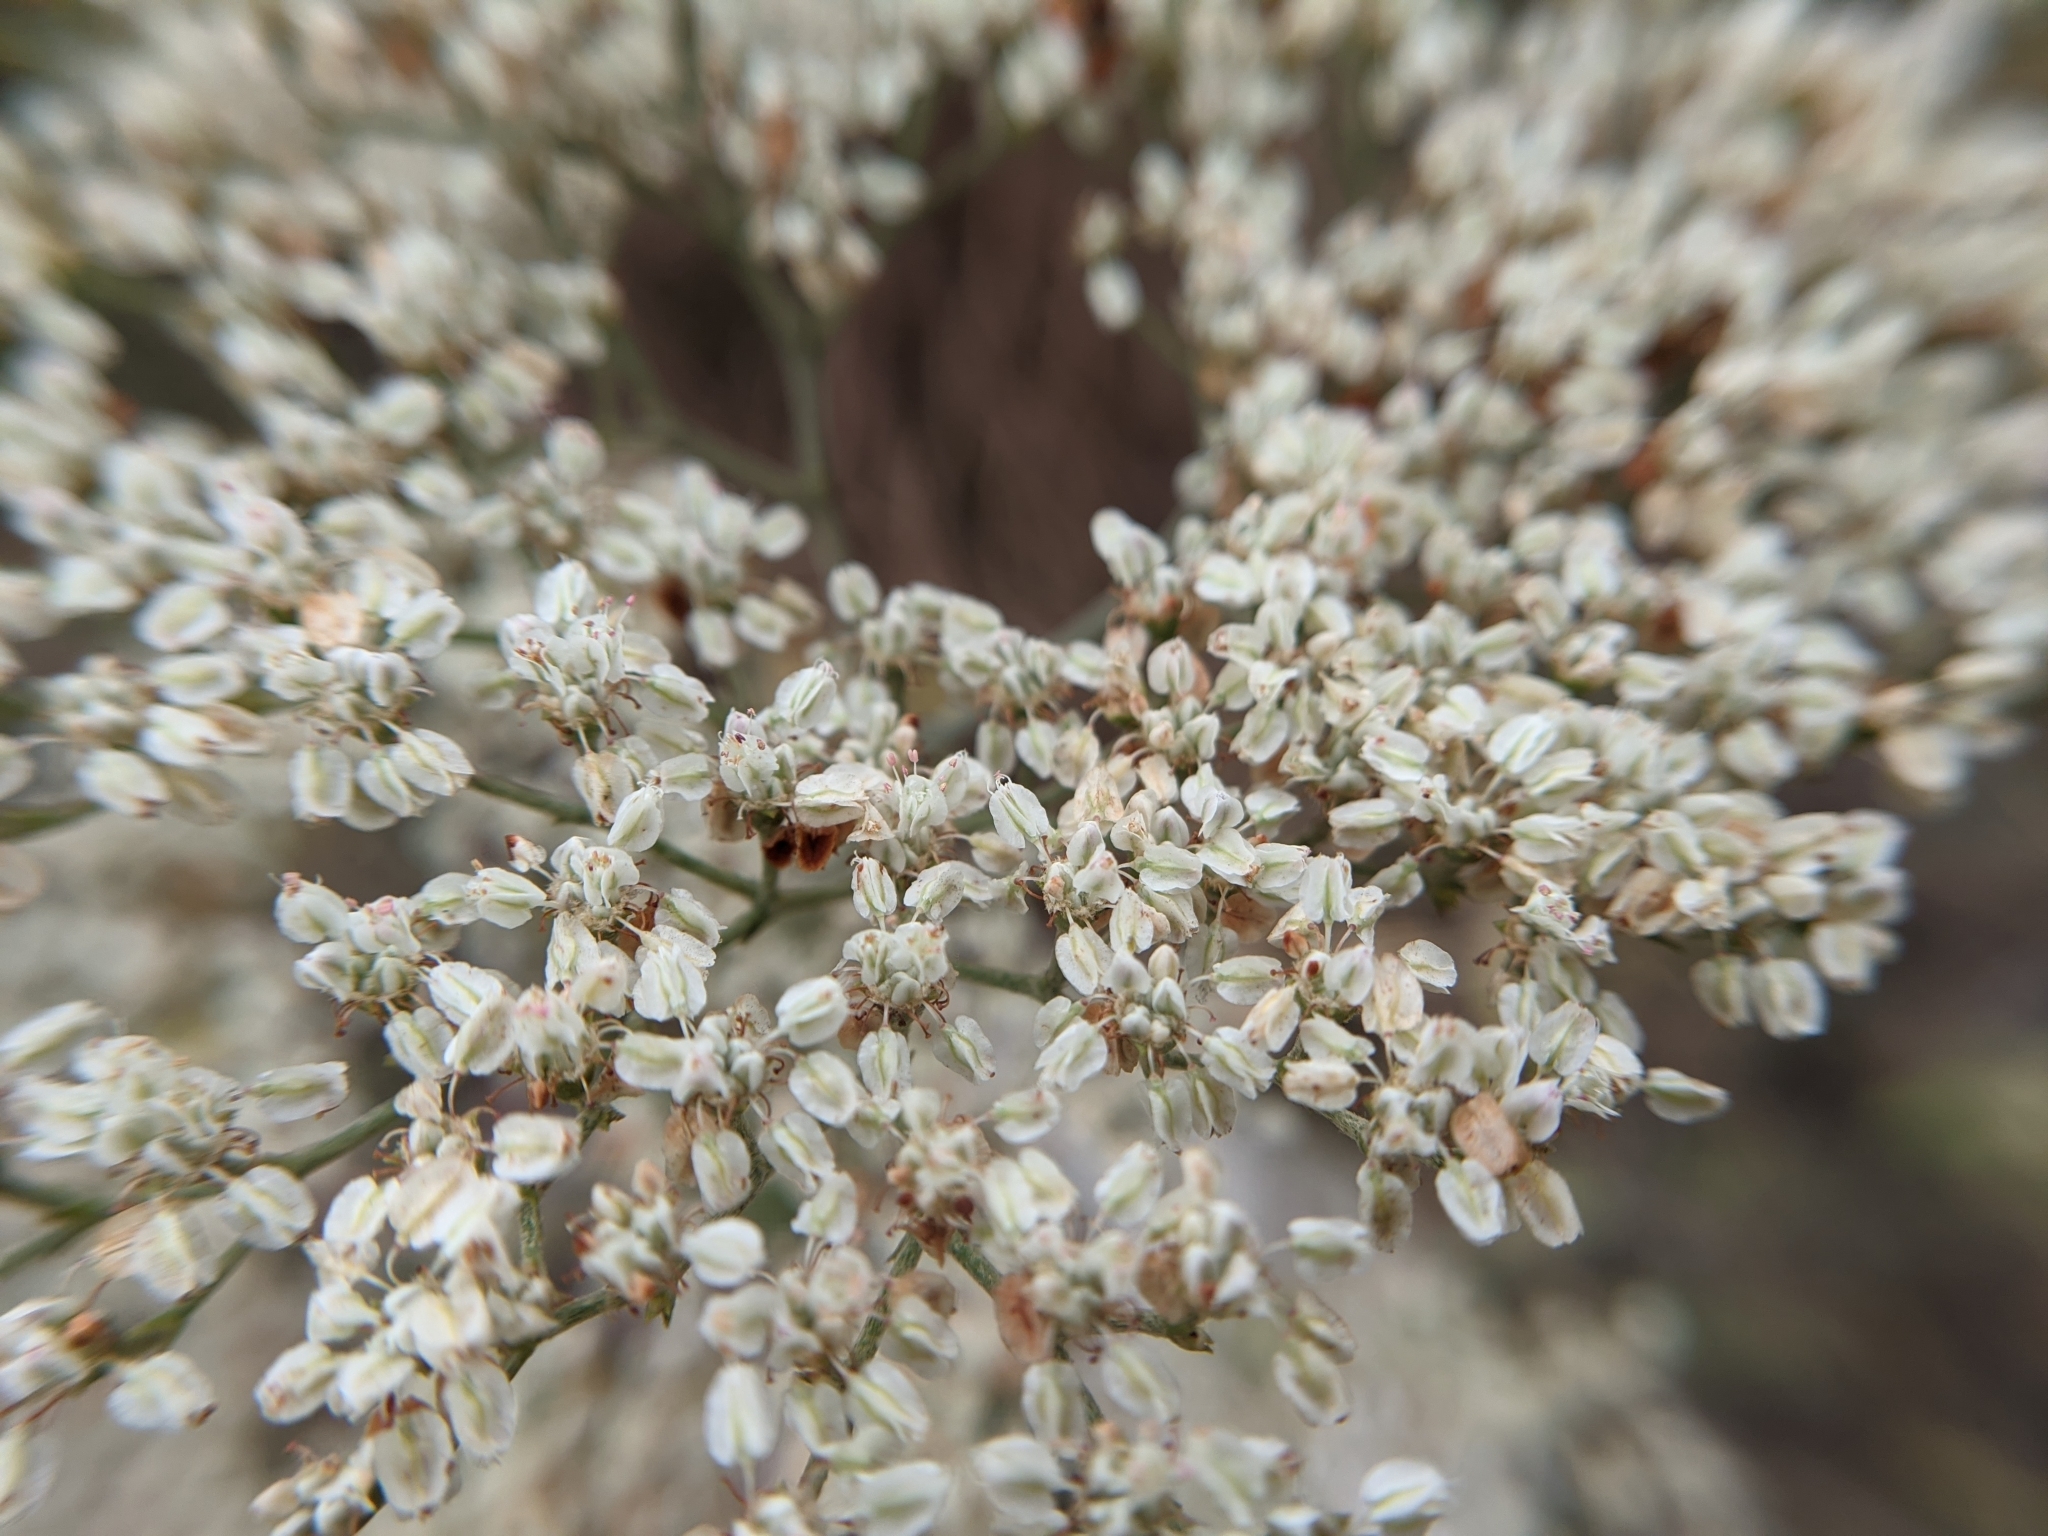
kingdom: Plantae
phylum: Tracheophyta
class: Magnoliopsida
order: Caryophyllales
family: Polygonaceae
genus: Eriogonum
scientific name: Eriogonum annuum
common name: Annual wild buckwheat
